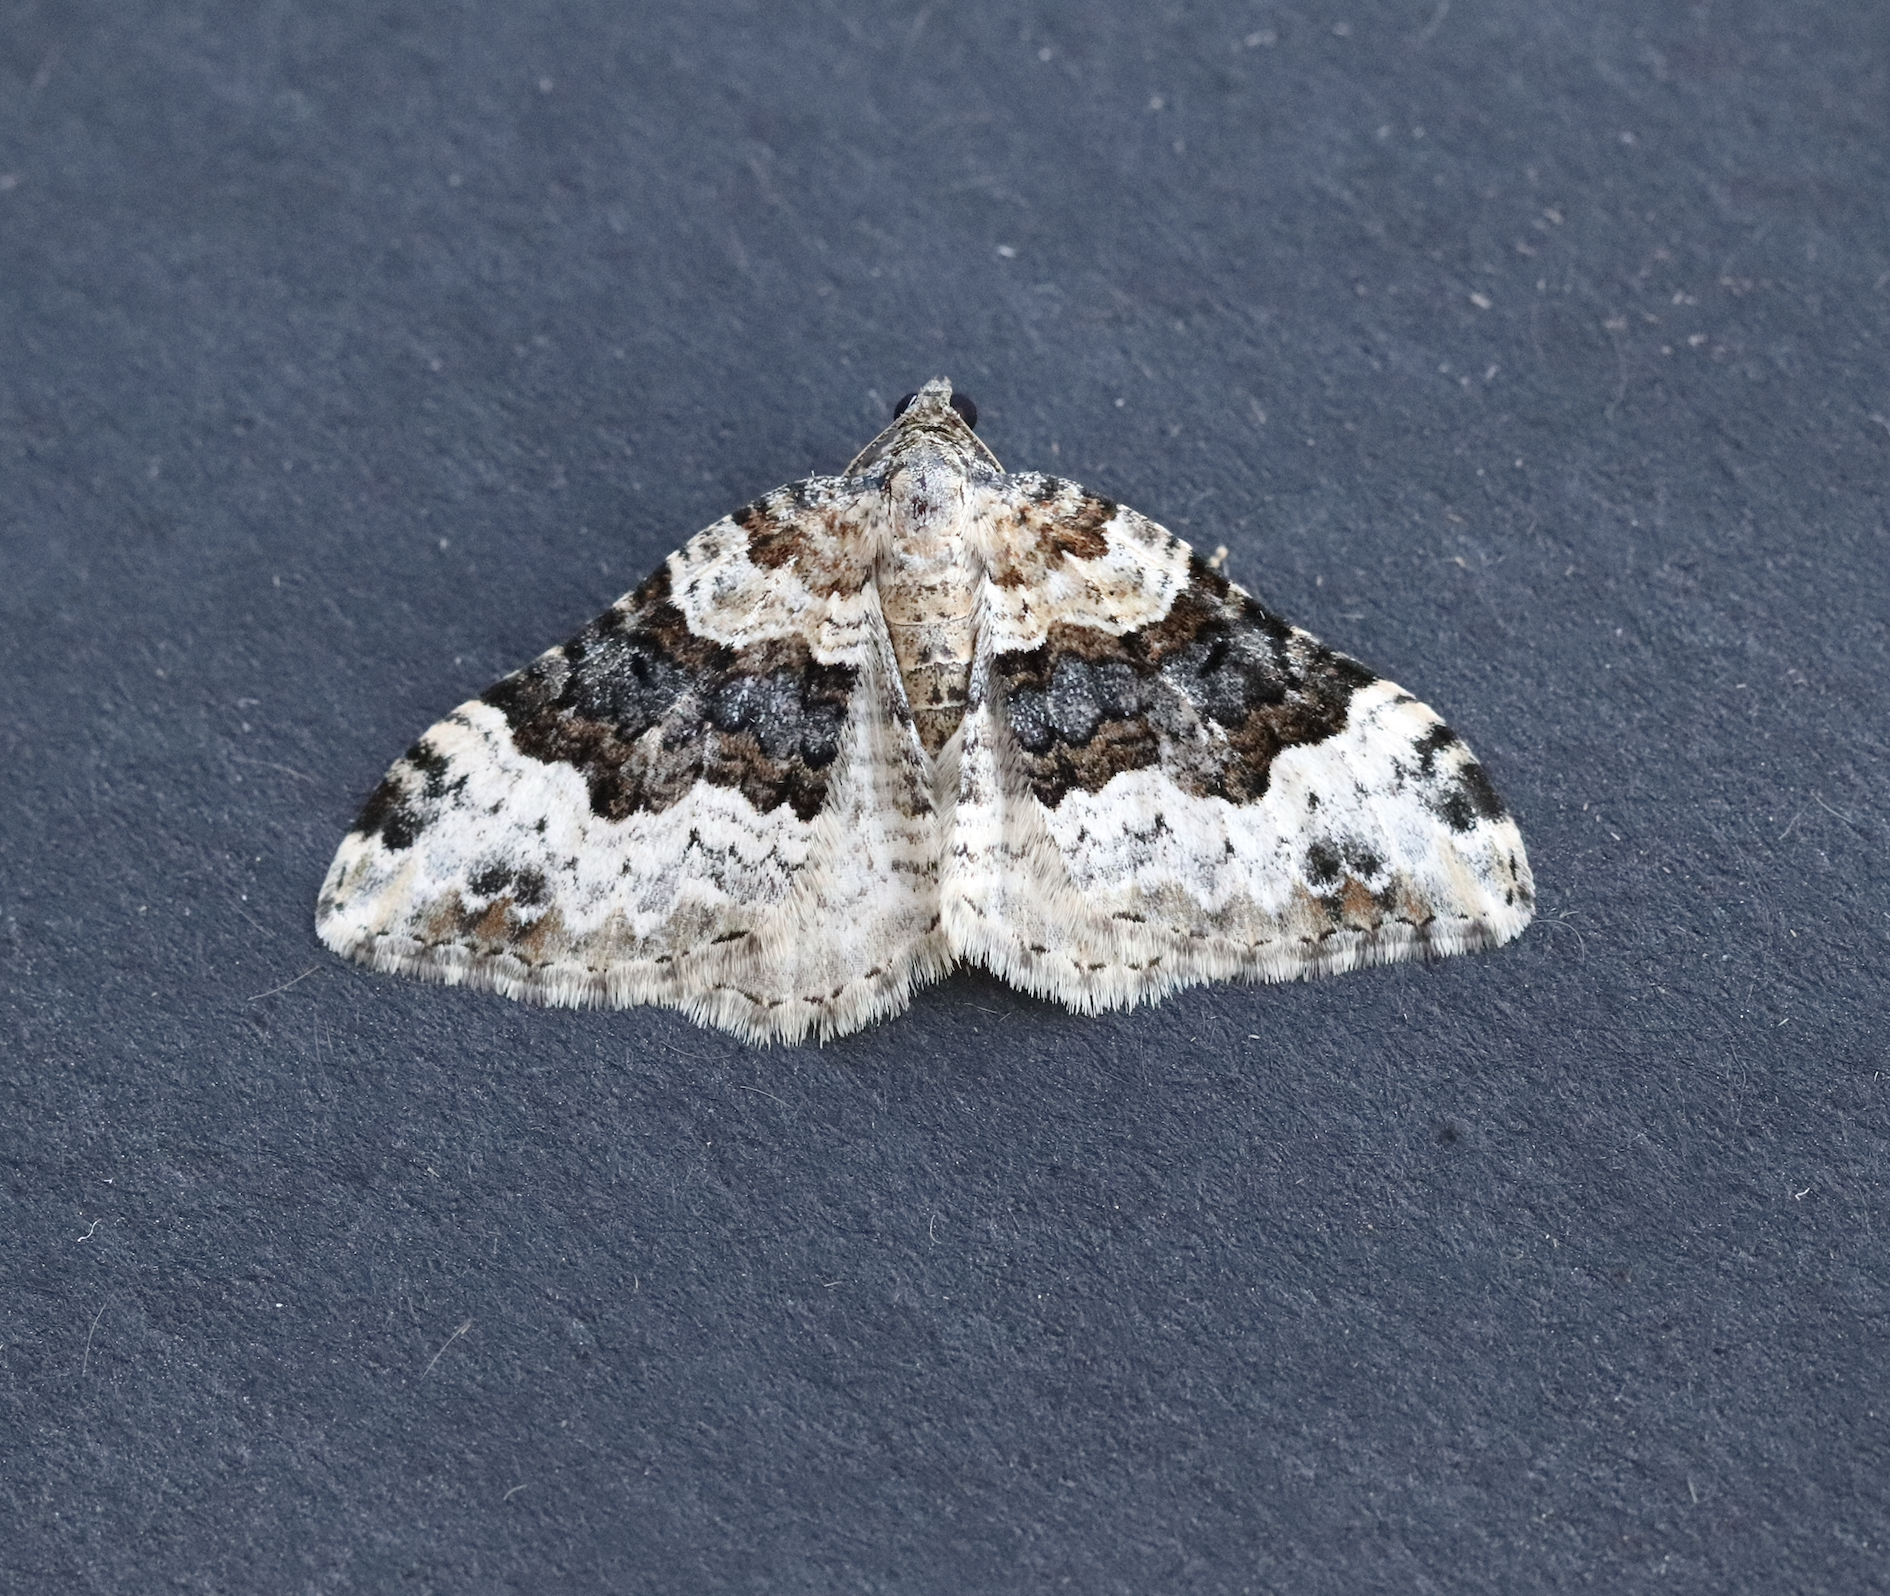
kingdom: Animalia
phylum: Arthropoda
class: Insecta
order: Lepidoptera
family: Geometridae
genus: Epirrhoe
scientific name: Epirrhoe galiata
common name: Galium carpet
